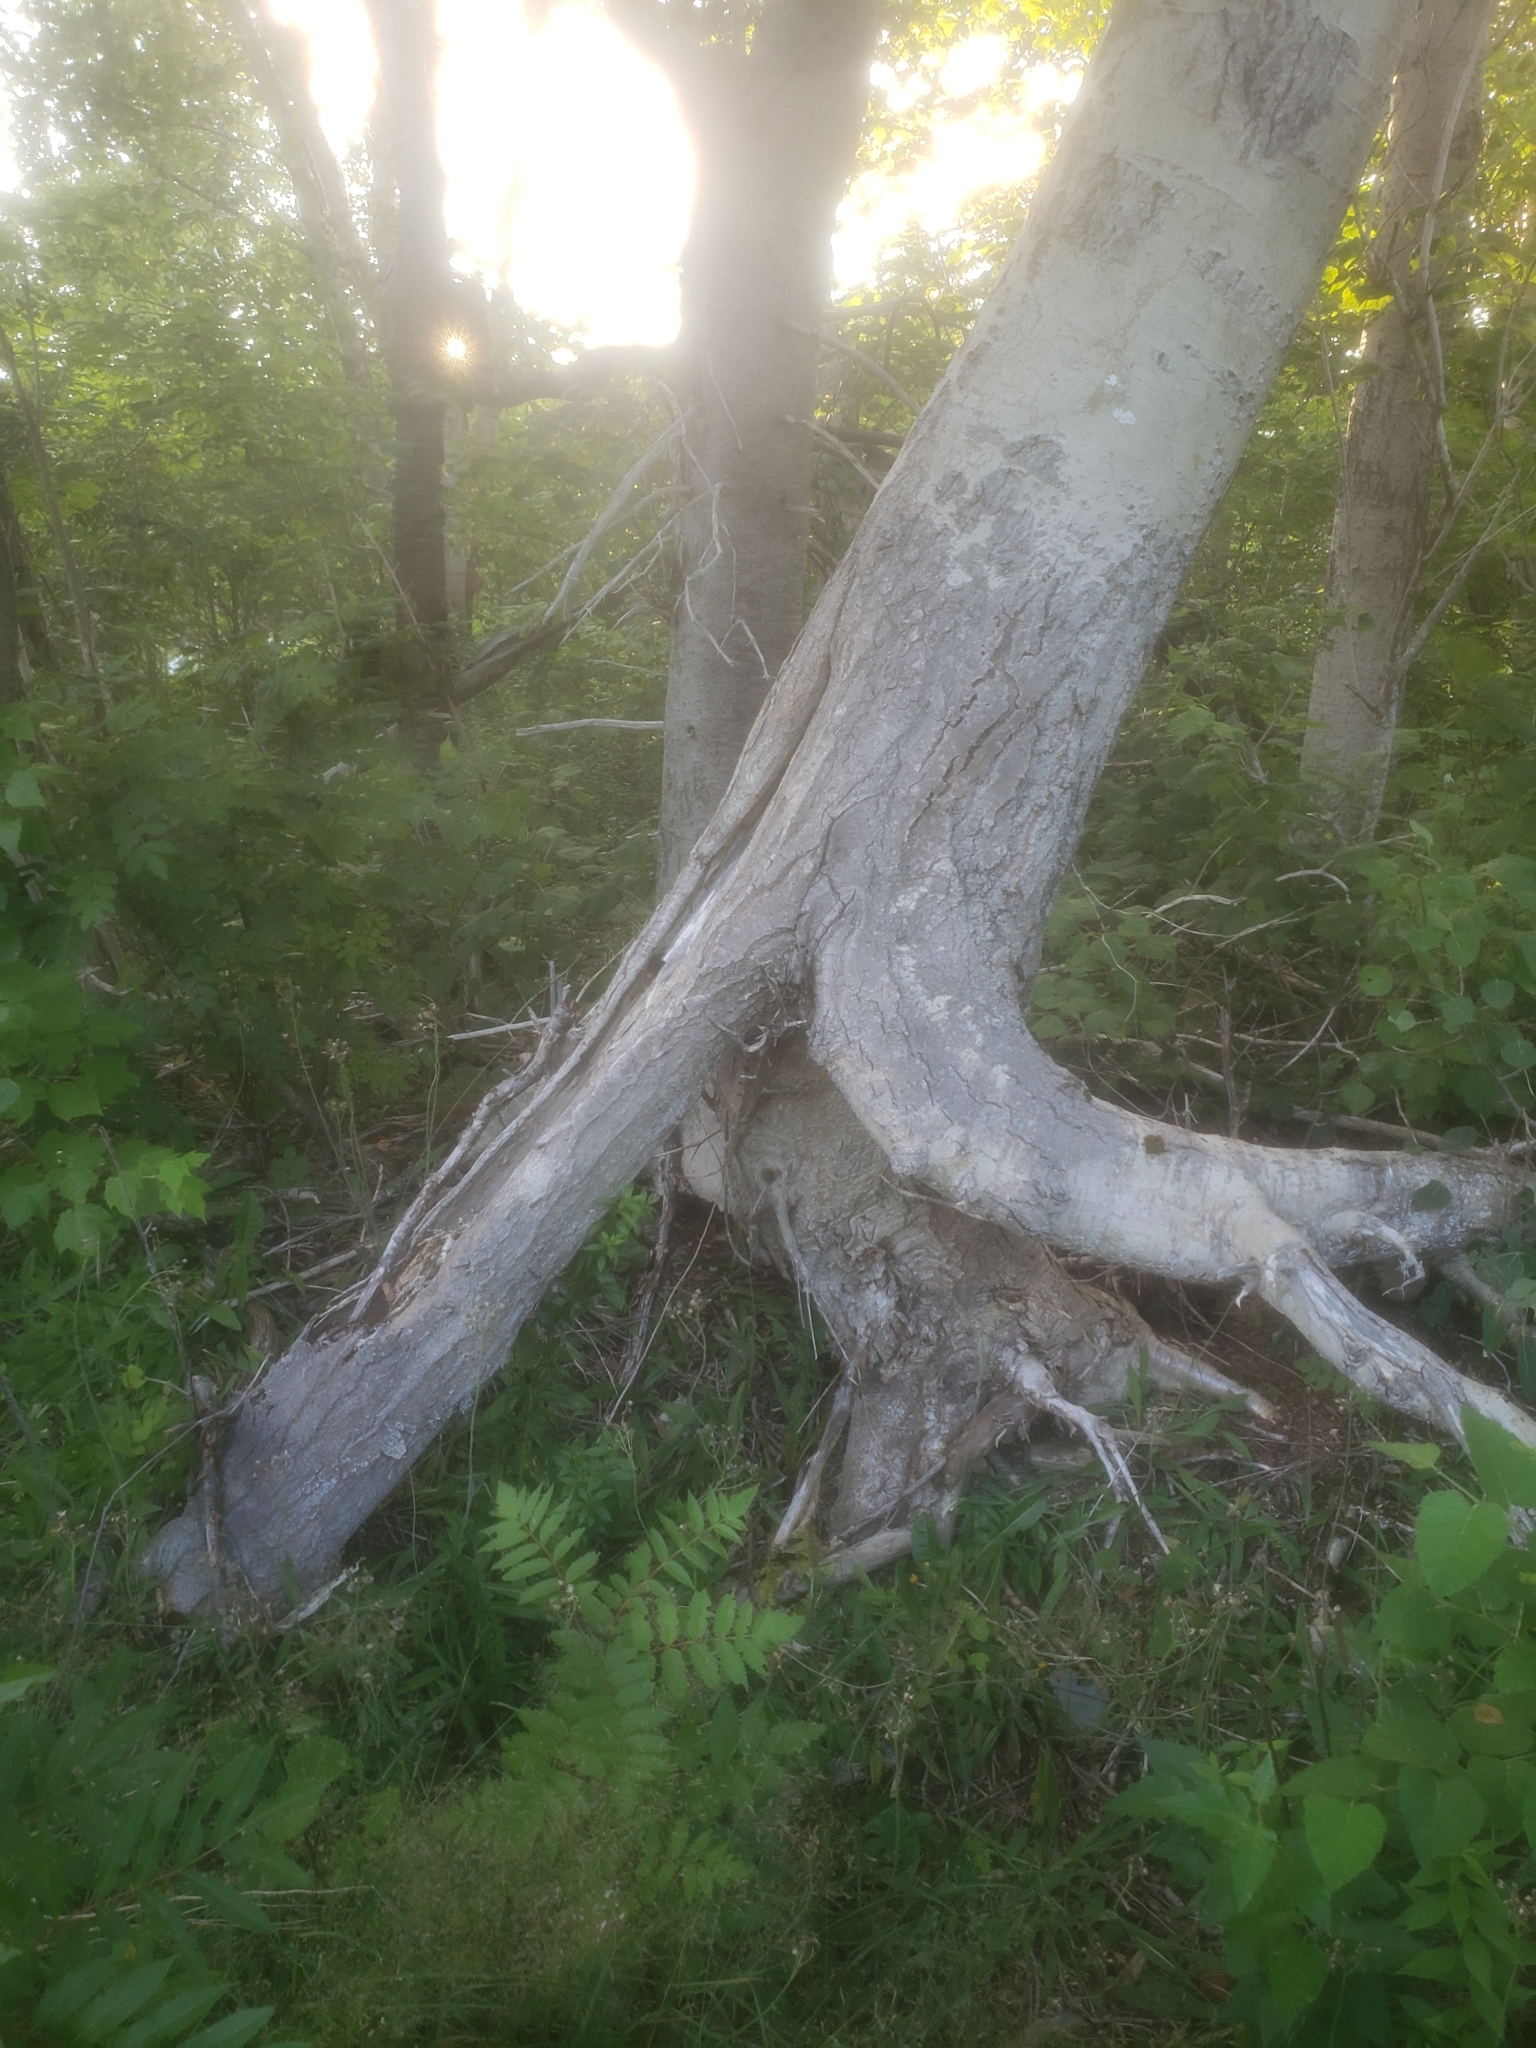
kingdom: Plantae
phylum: Tracheophyta
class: Magnoliopsida
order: Malpighiales
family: Salicaceae
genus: Populus
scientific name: Populus tremuloides
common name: Quaking aspen
